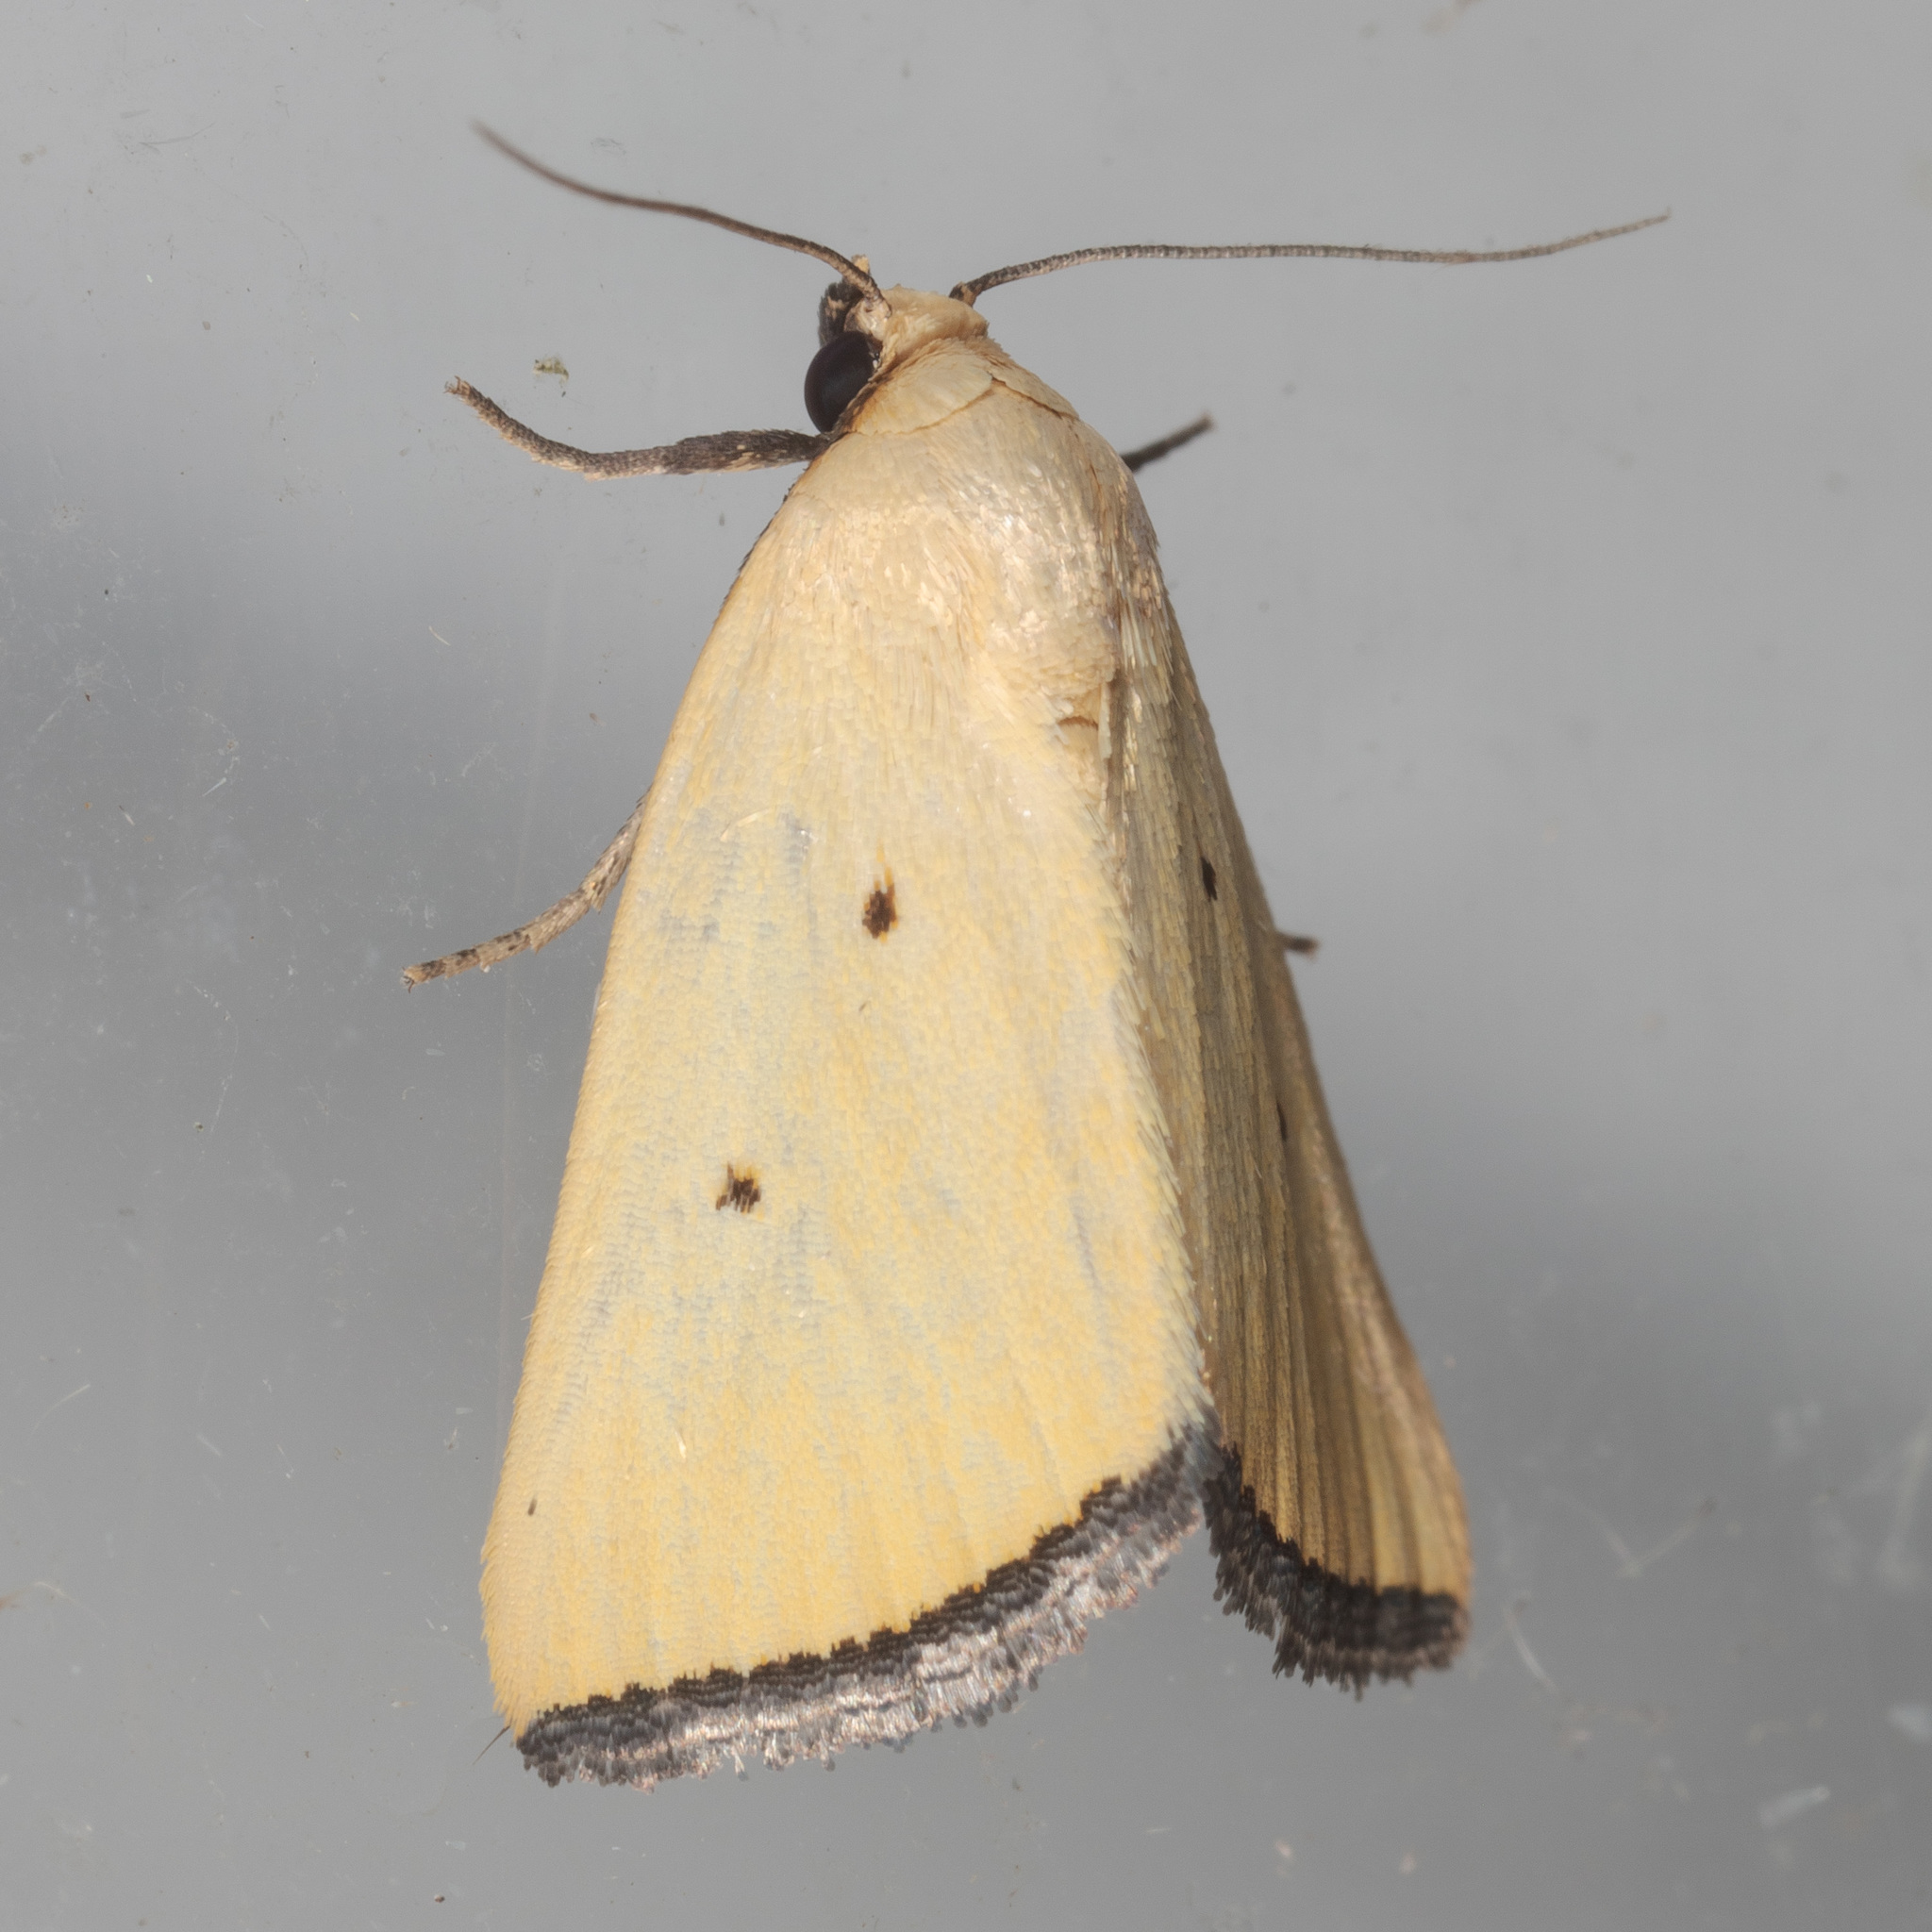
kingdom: Animalia
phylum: Arthropoda
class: Insecta
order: Lepidoptera
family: Noctuidae
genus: Marimatha
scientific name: Marimatha nigrofimbria
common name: Black-bordered lemon moth
